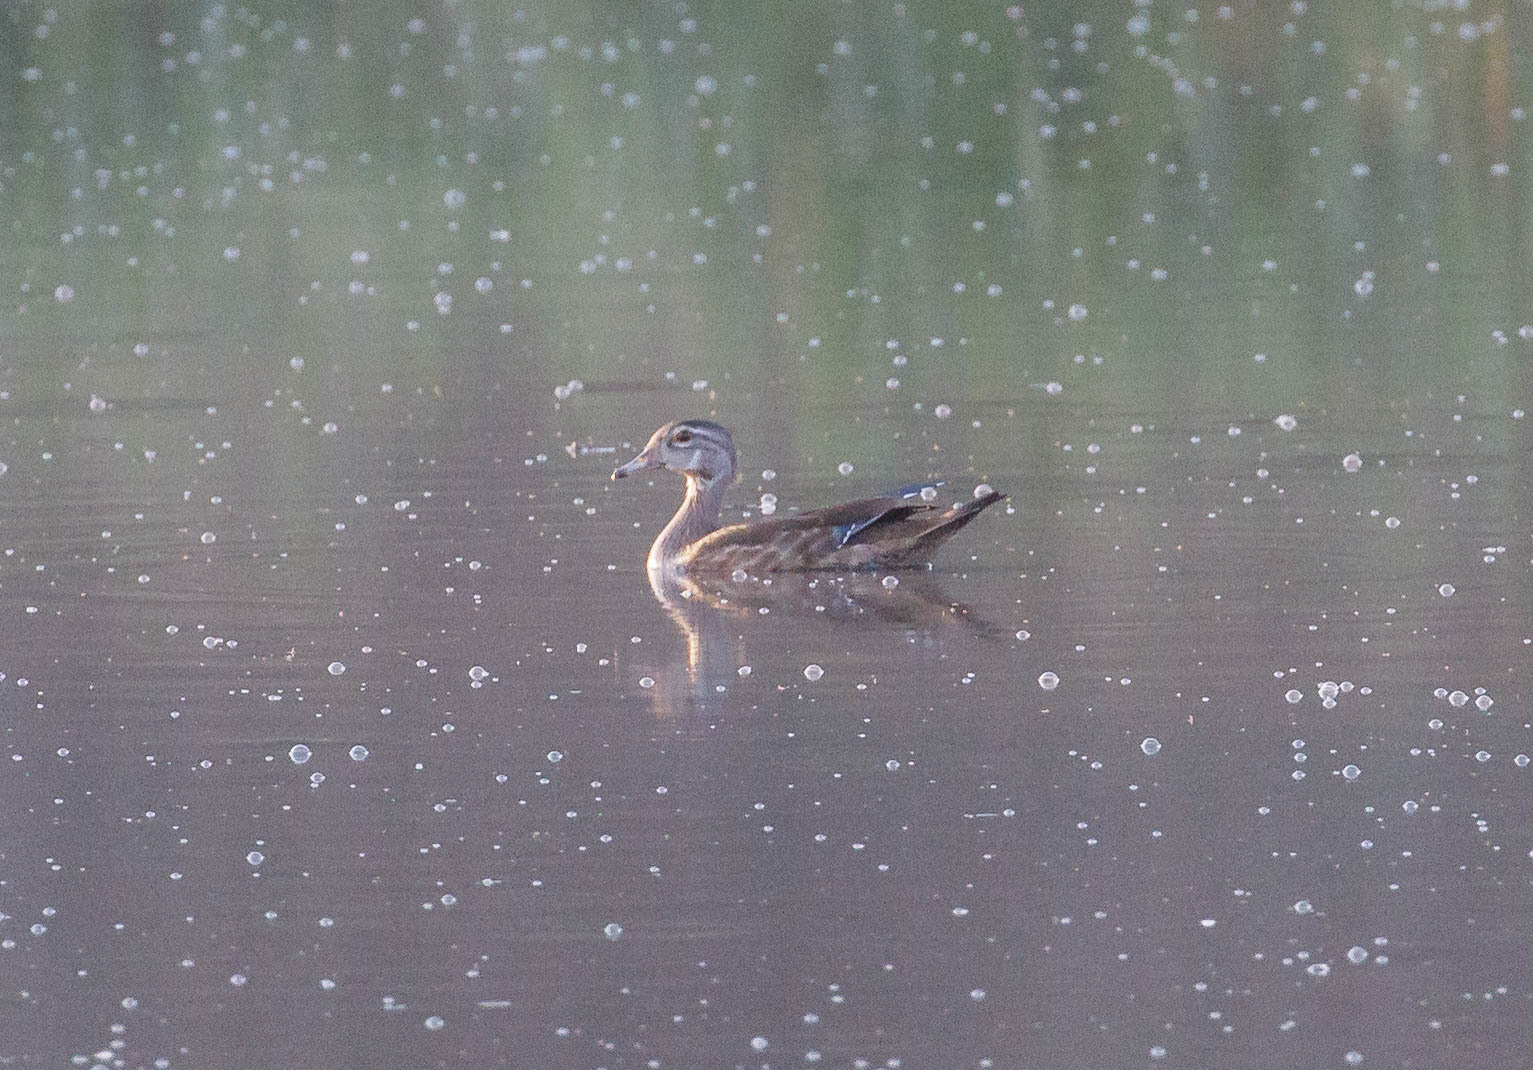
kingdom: Animalia
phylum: Chordata
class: Aves
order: Anseriformes
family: Anatidae
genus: Aix
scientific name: Aix sponsa
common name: Wood duck
